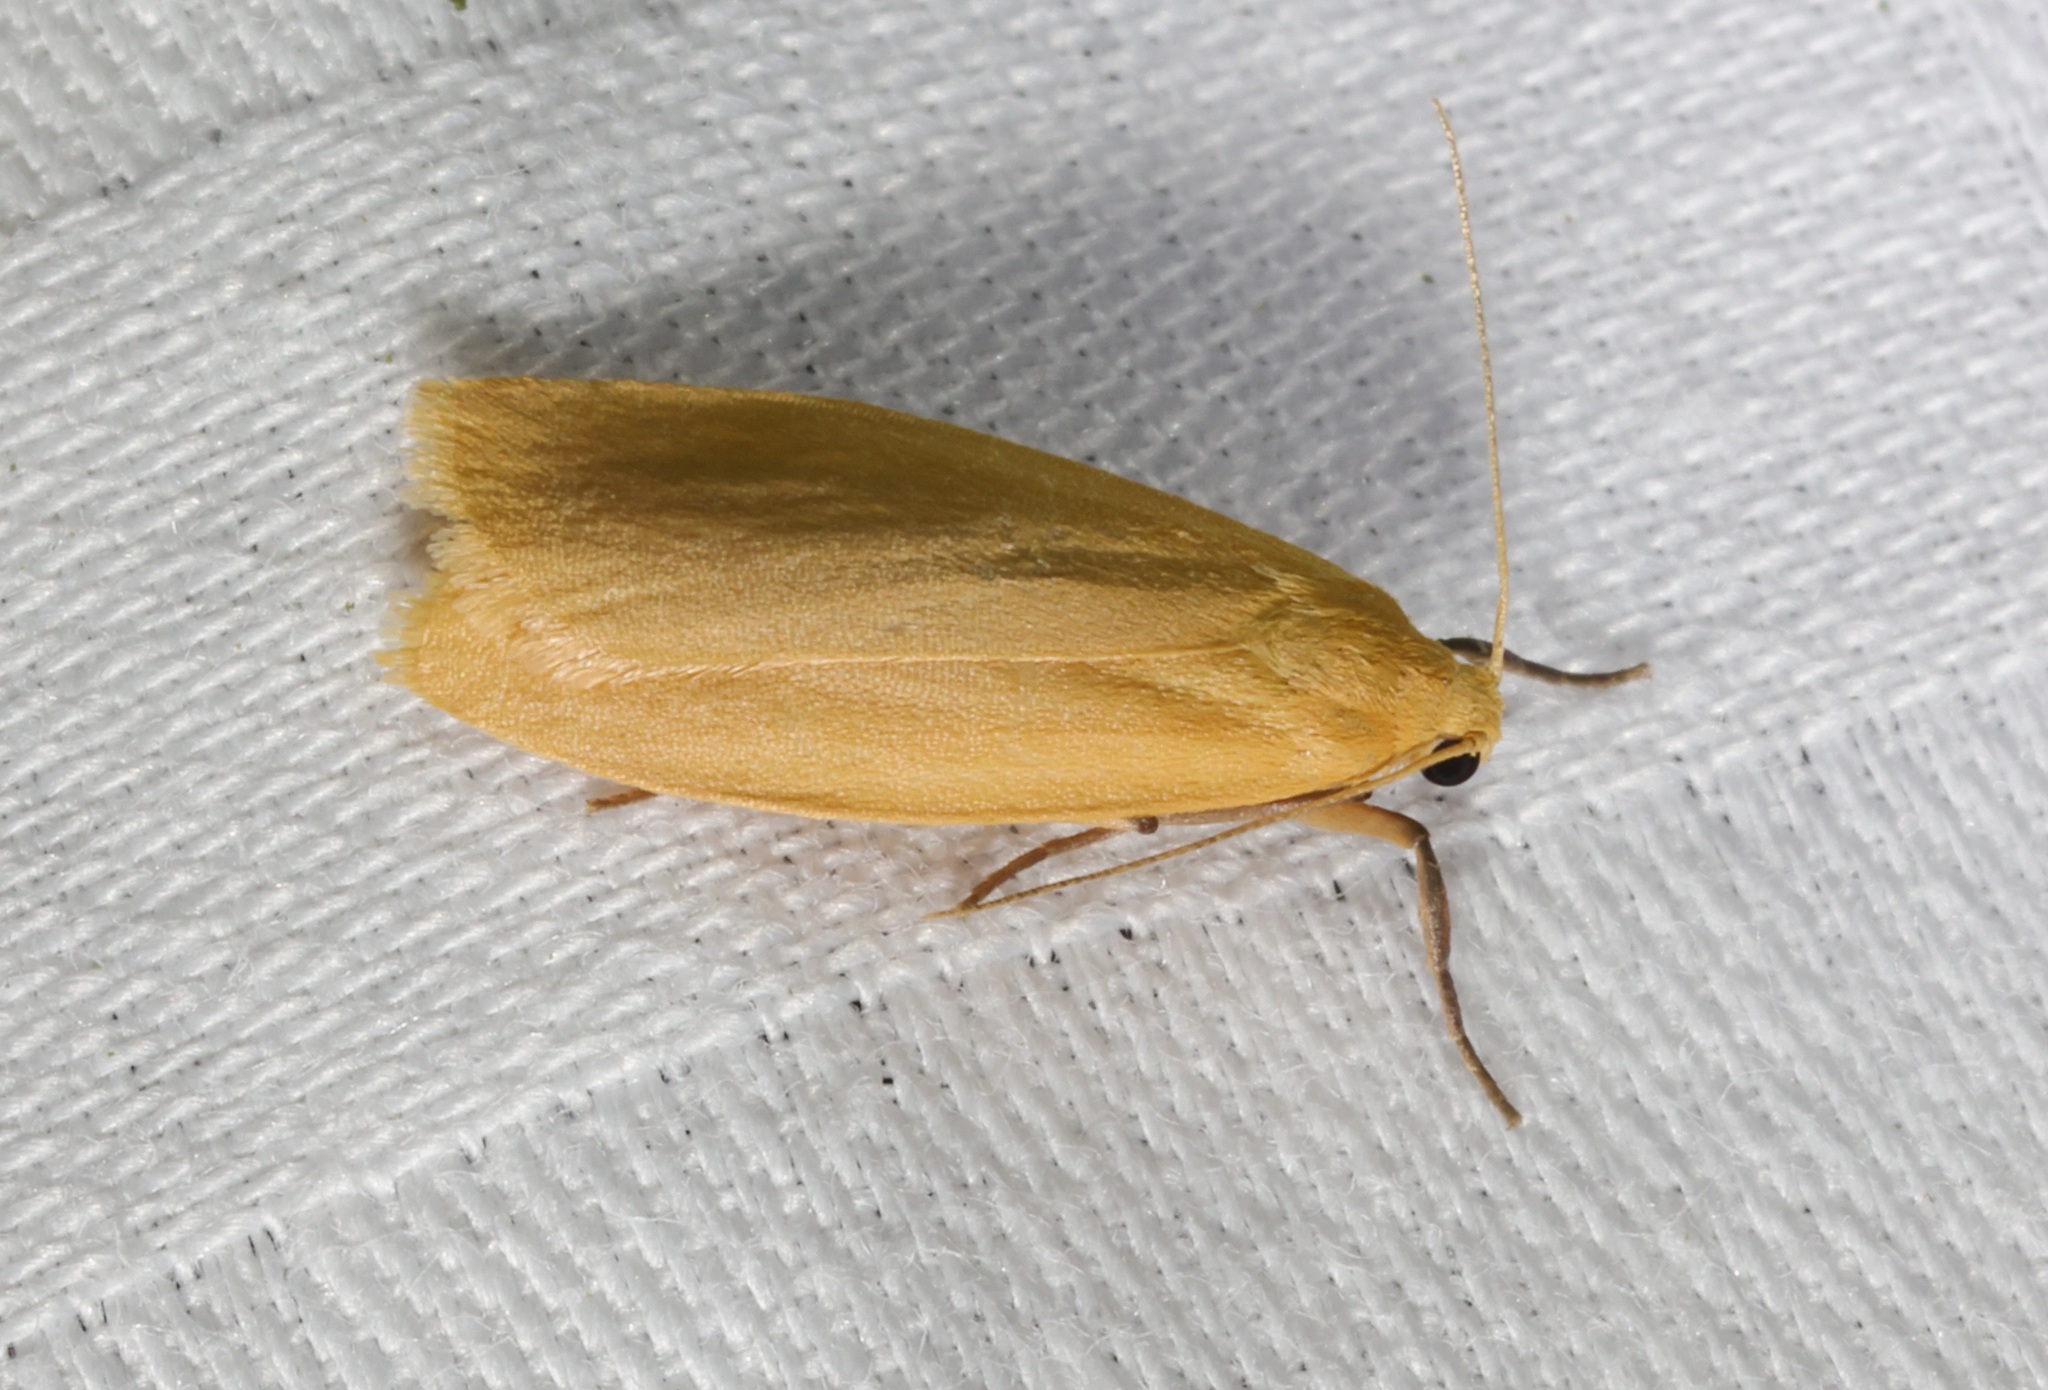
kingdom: Animalia
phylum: Arthropoda
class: Insecta
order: Lepidoptera
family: Erebidae
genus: Manulea
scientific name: Manulea
